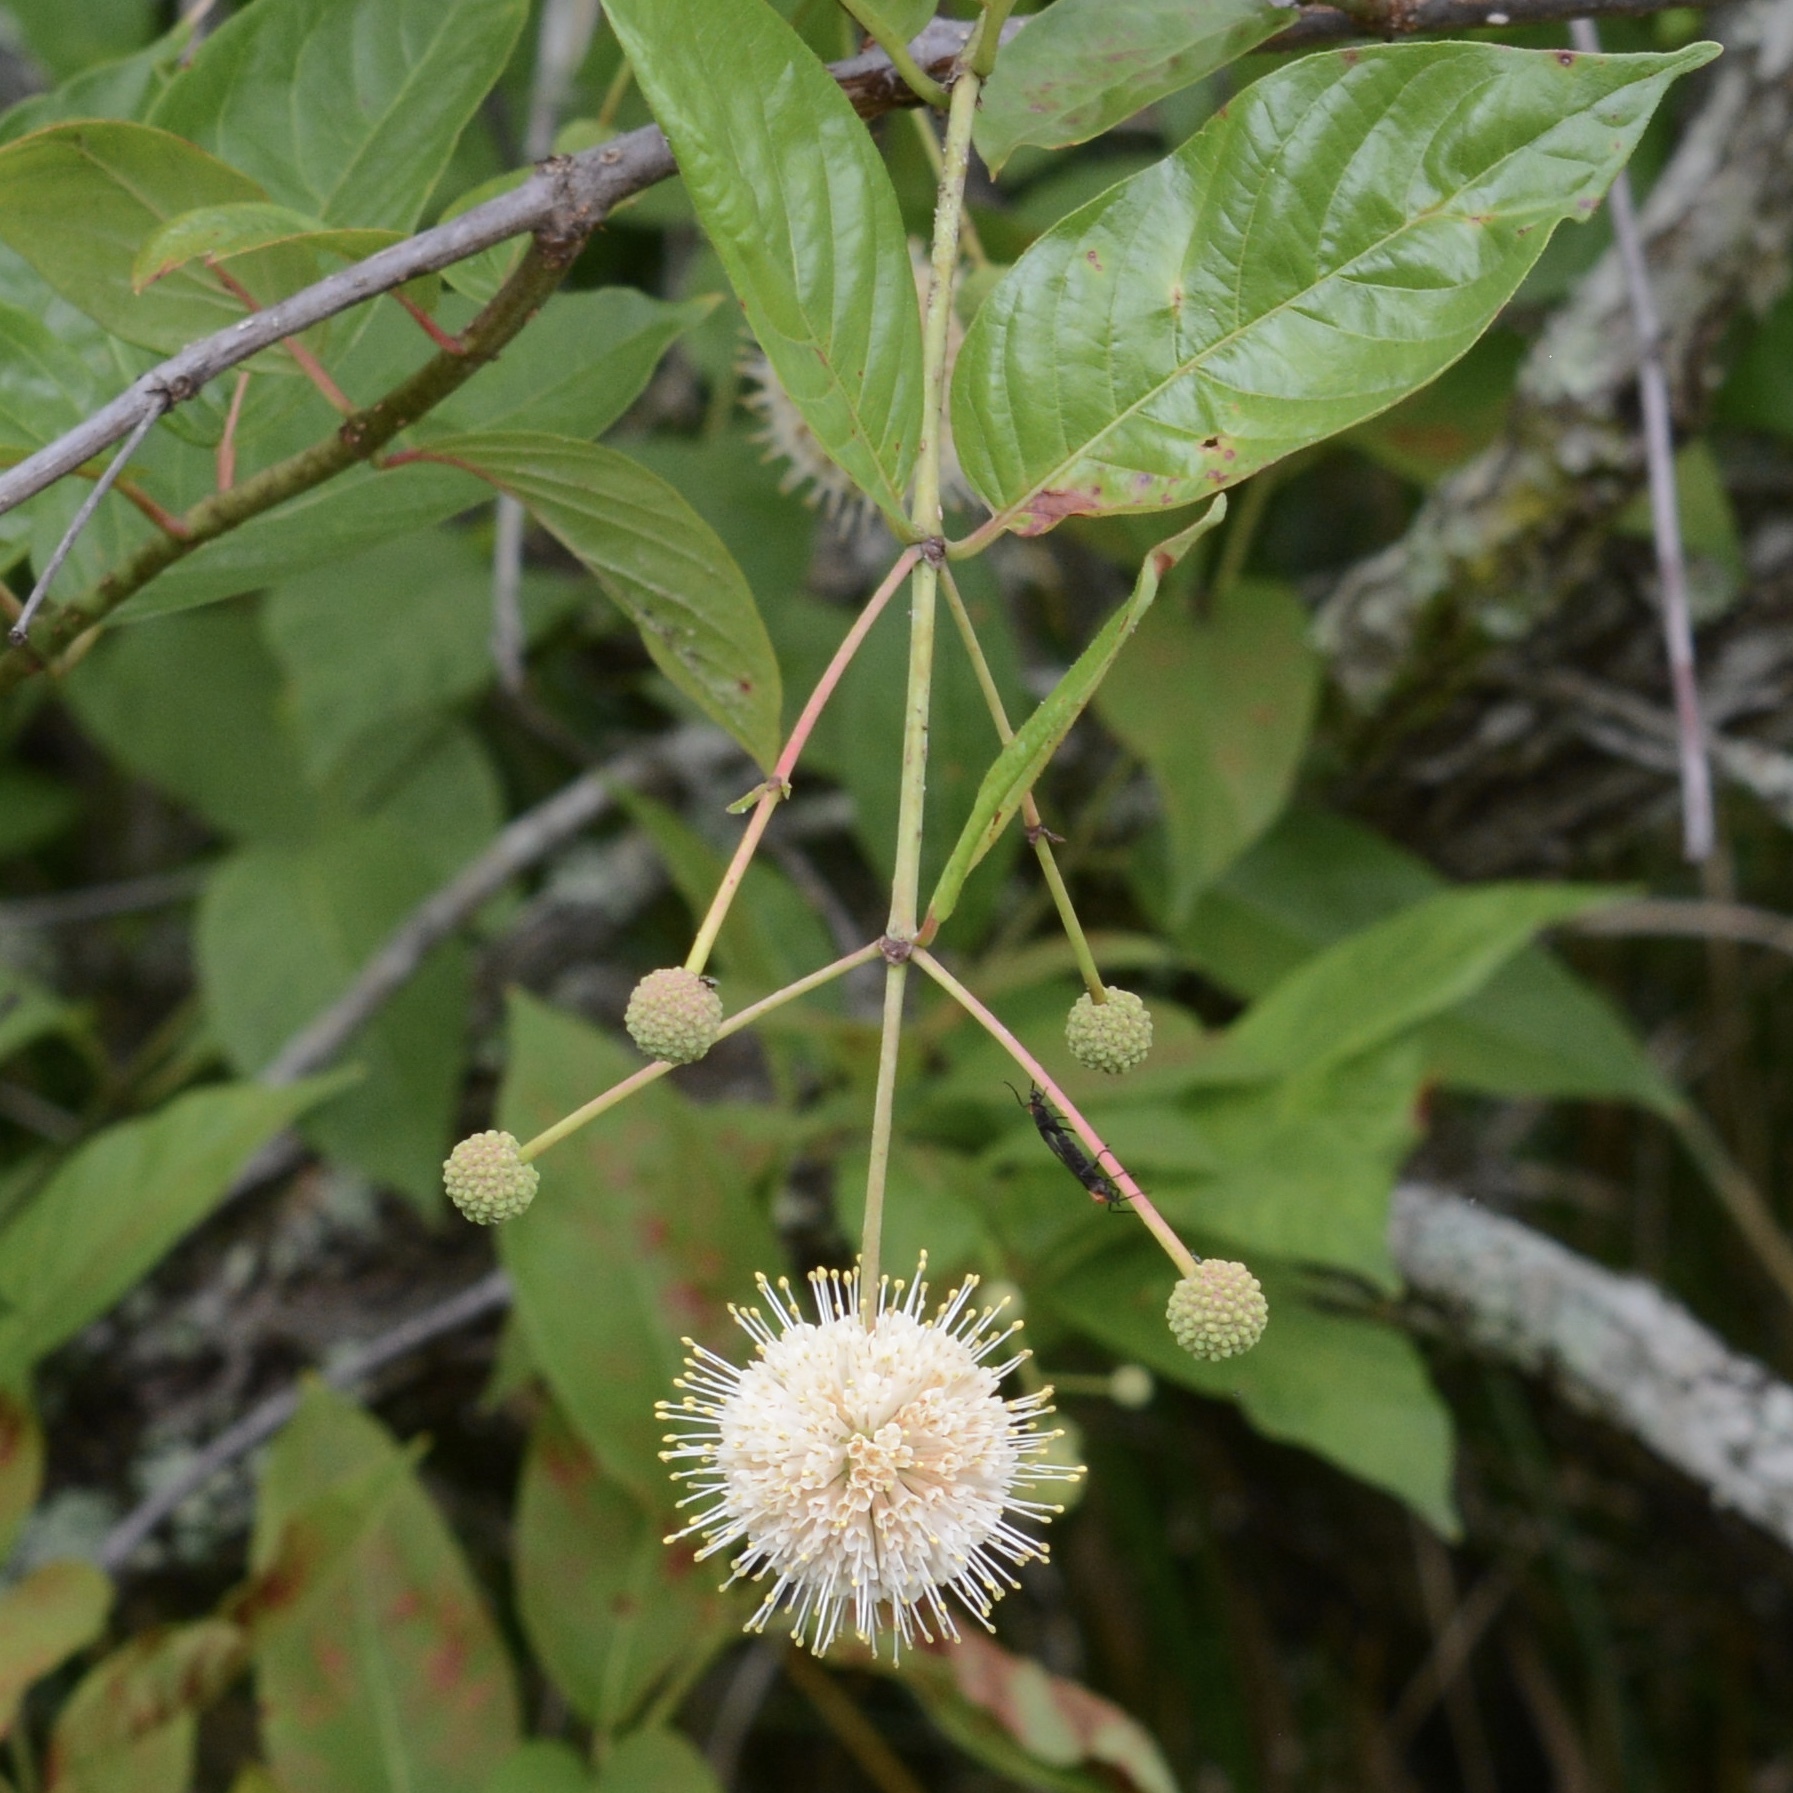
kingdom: Plantae
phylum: Tracheophyta
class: Magnoliopsida
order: Gentianales
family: Rubiaceae
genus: Cephalanthus
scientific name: Cephalanthus occidentalis
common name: Button-willow
